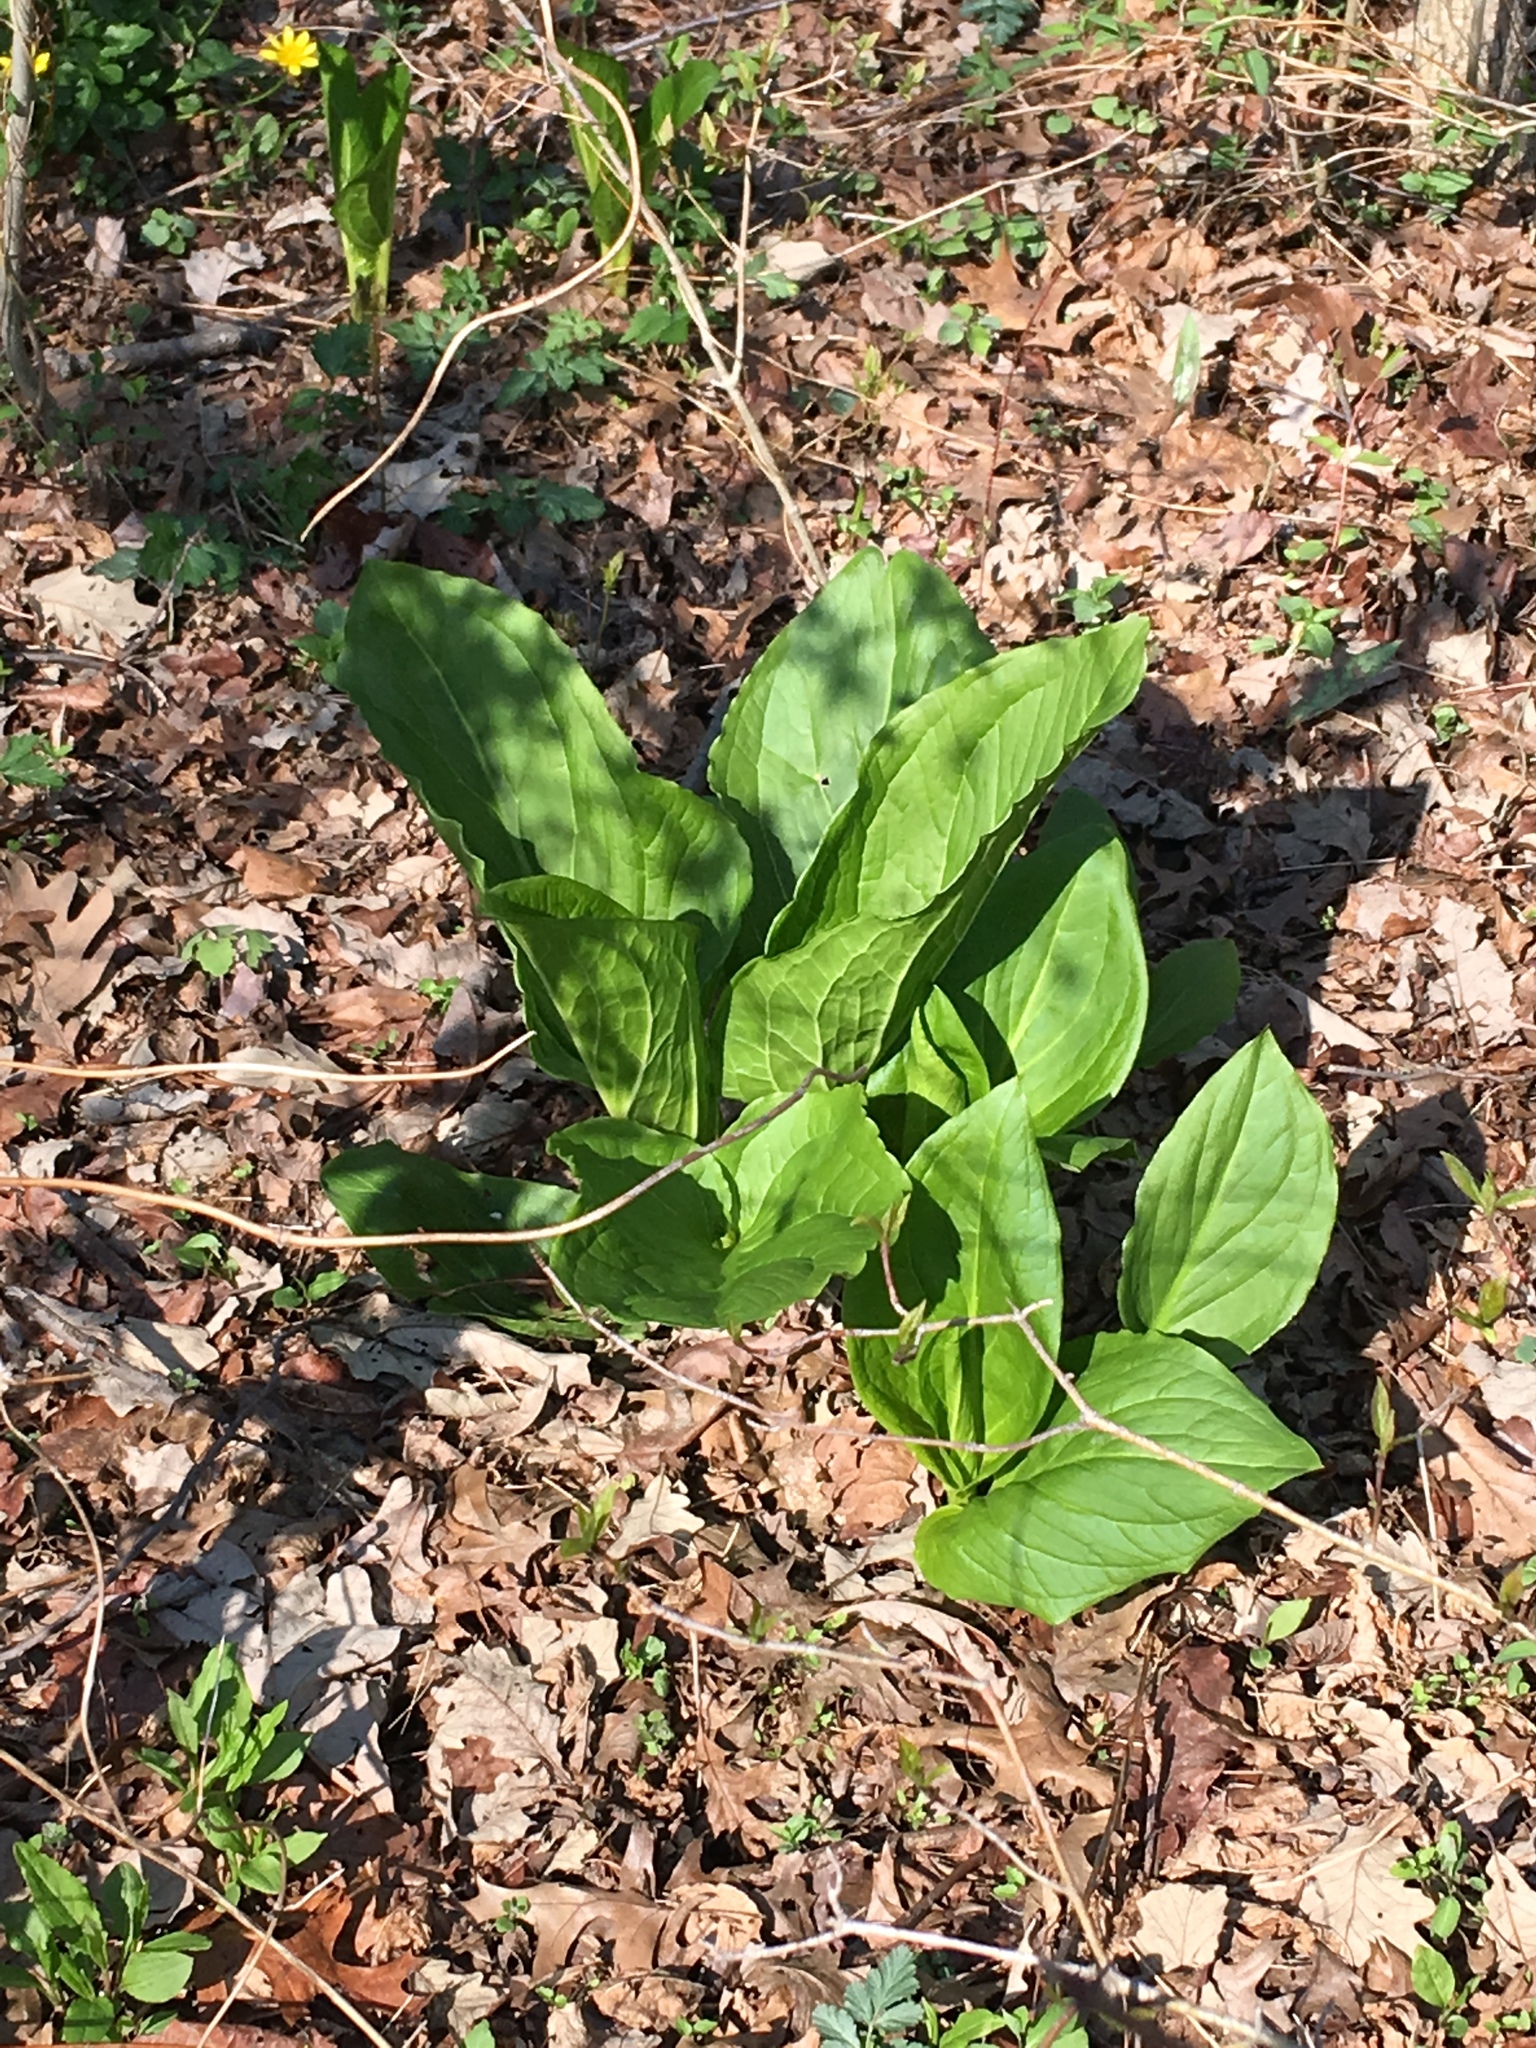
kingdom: Plantae
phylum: Tracheophyta
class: Liliopsida
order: Alismatales
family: Araceae
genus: Symplocarpus
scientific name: Symplocarpus foetidus
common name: Eastern skunk cabbage
